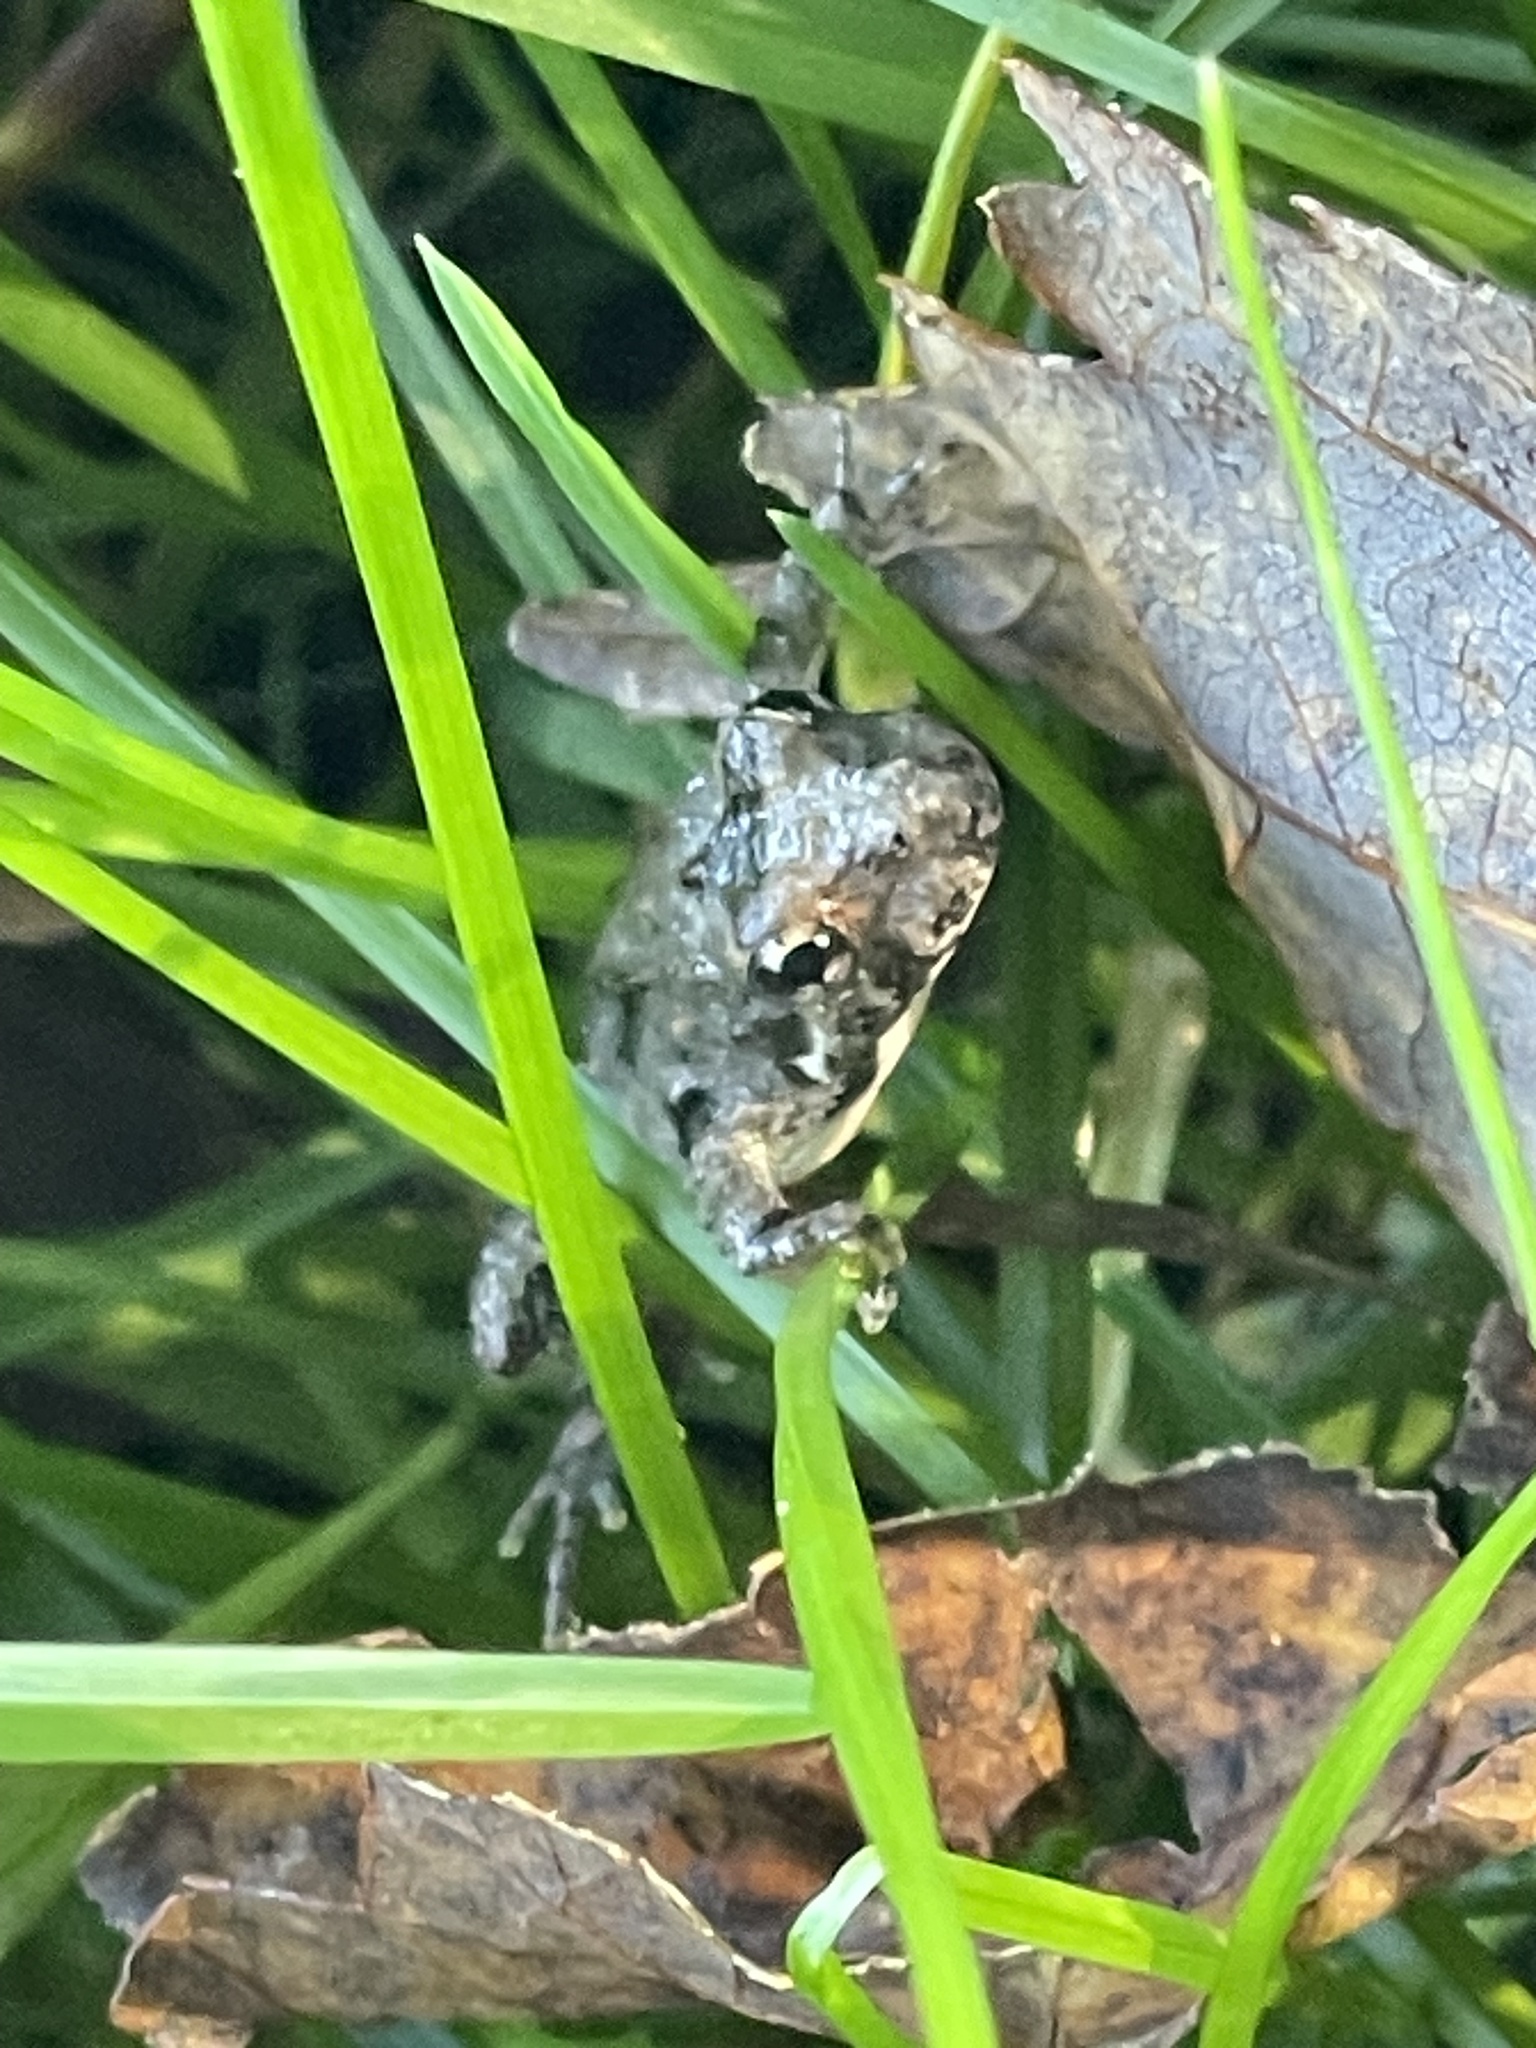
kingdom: Animalia
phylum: Chordata
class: Amphibia
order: Anura
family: Hylidae
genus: Acris
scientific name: Acris crepitans
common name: Northern cricket frog
